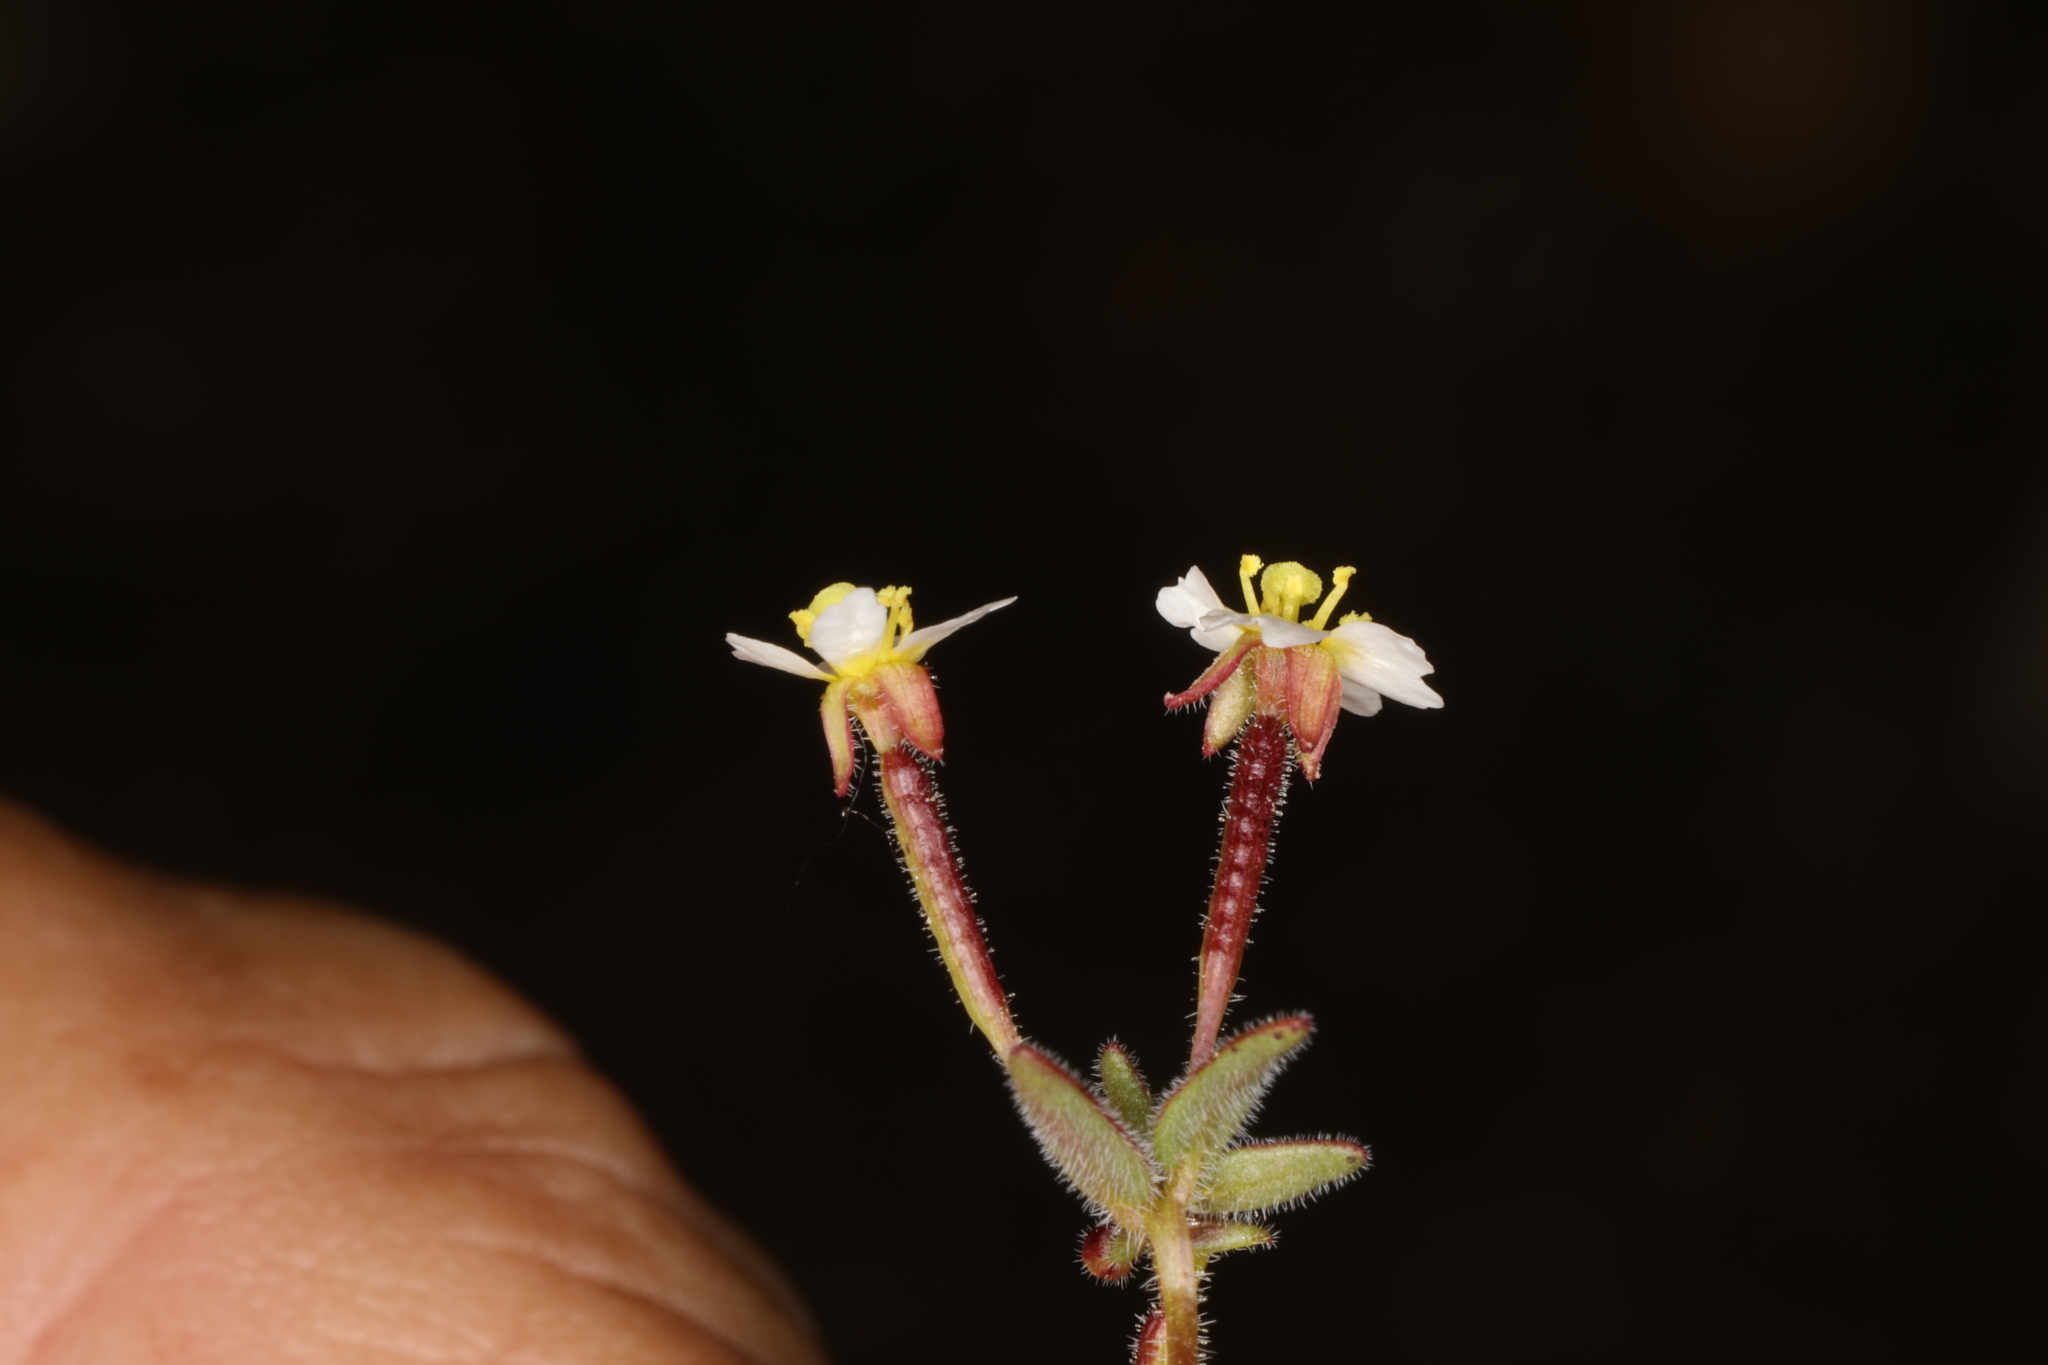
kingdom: Plantae
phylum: Tracheophyta
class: Magnoliopsida
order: Myrtales
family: Onagraceae
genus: Chylismiella
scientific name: Chylismiella pterosperma
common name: Wingfruit suncup
